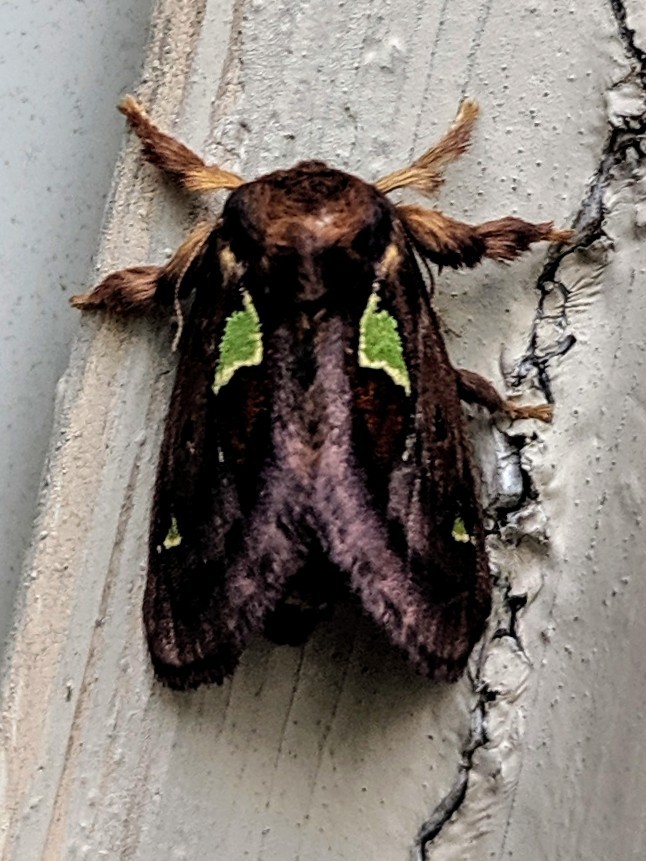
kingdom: Animalia
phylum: Arthropoda
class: Insecta
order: Lepidoptera
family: Limacodidae
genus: Euclea
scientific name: Euclea delphinii
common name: Spiny oak-slug moth
